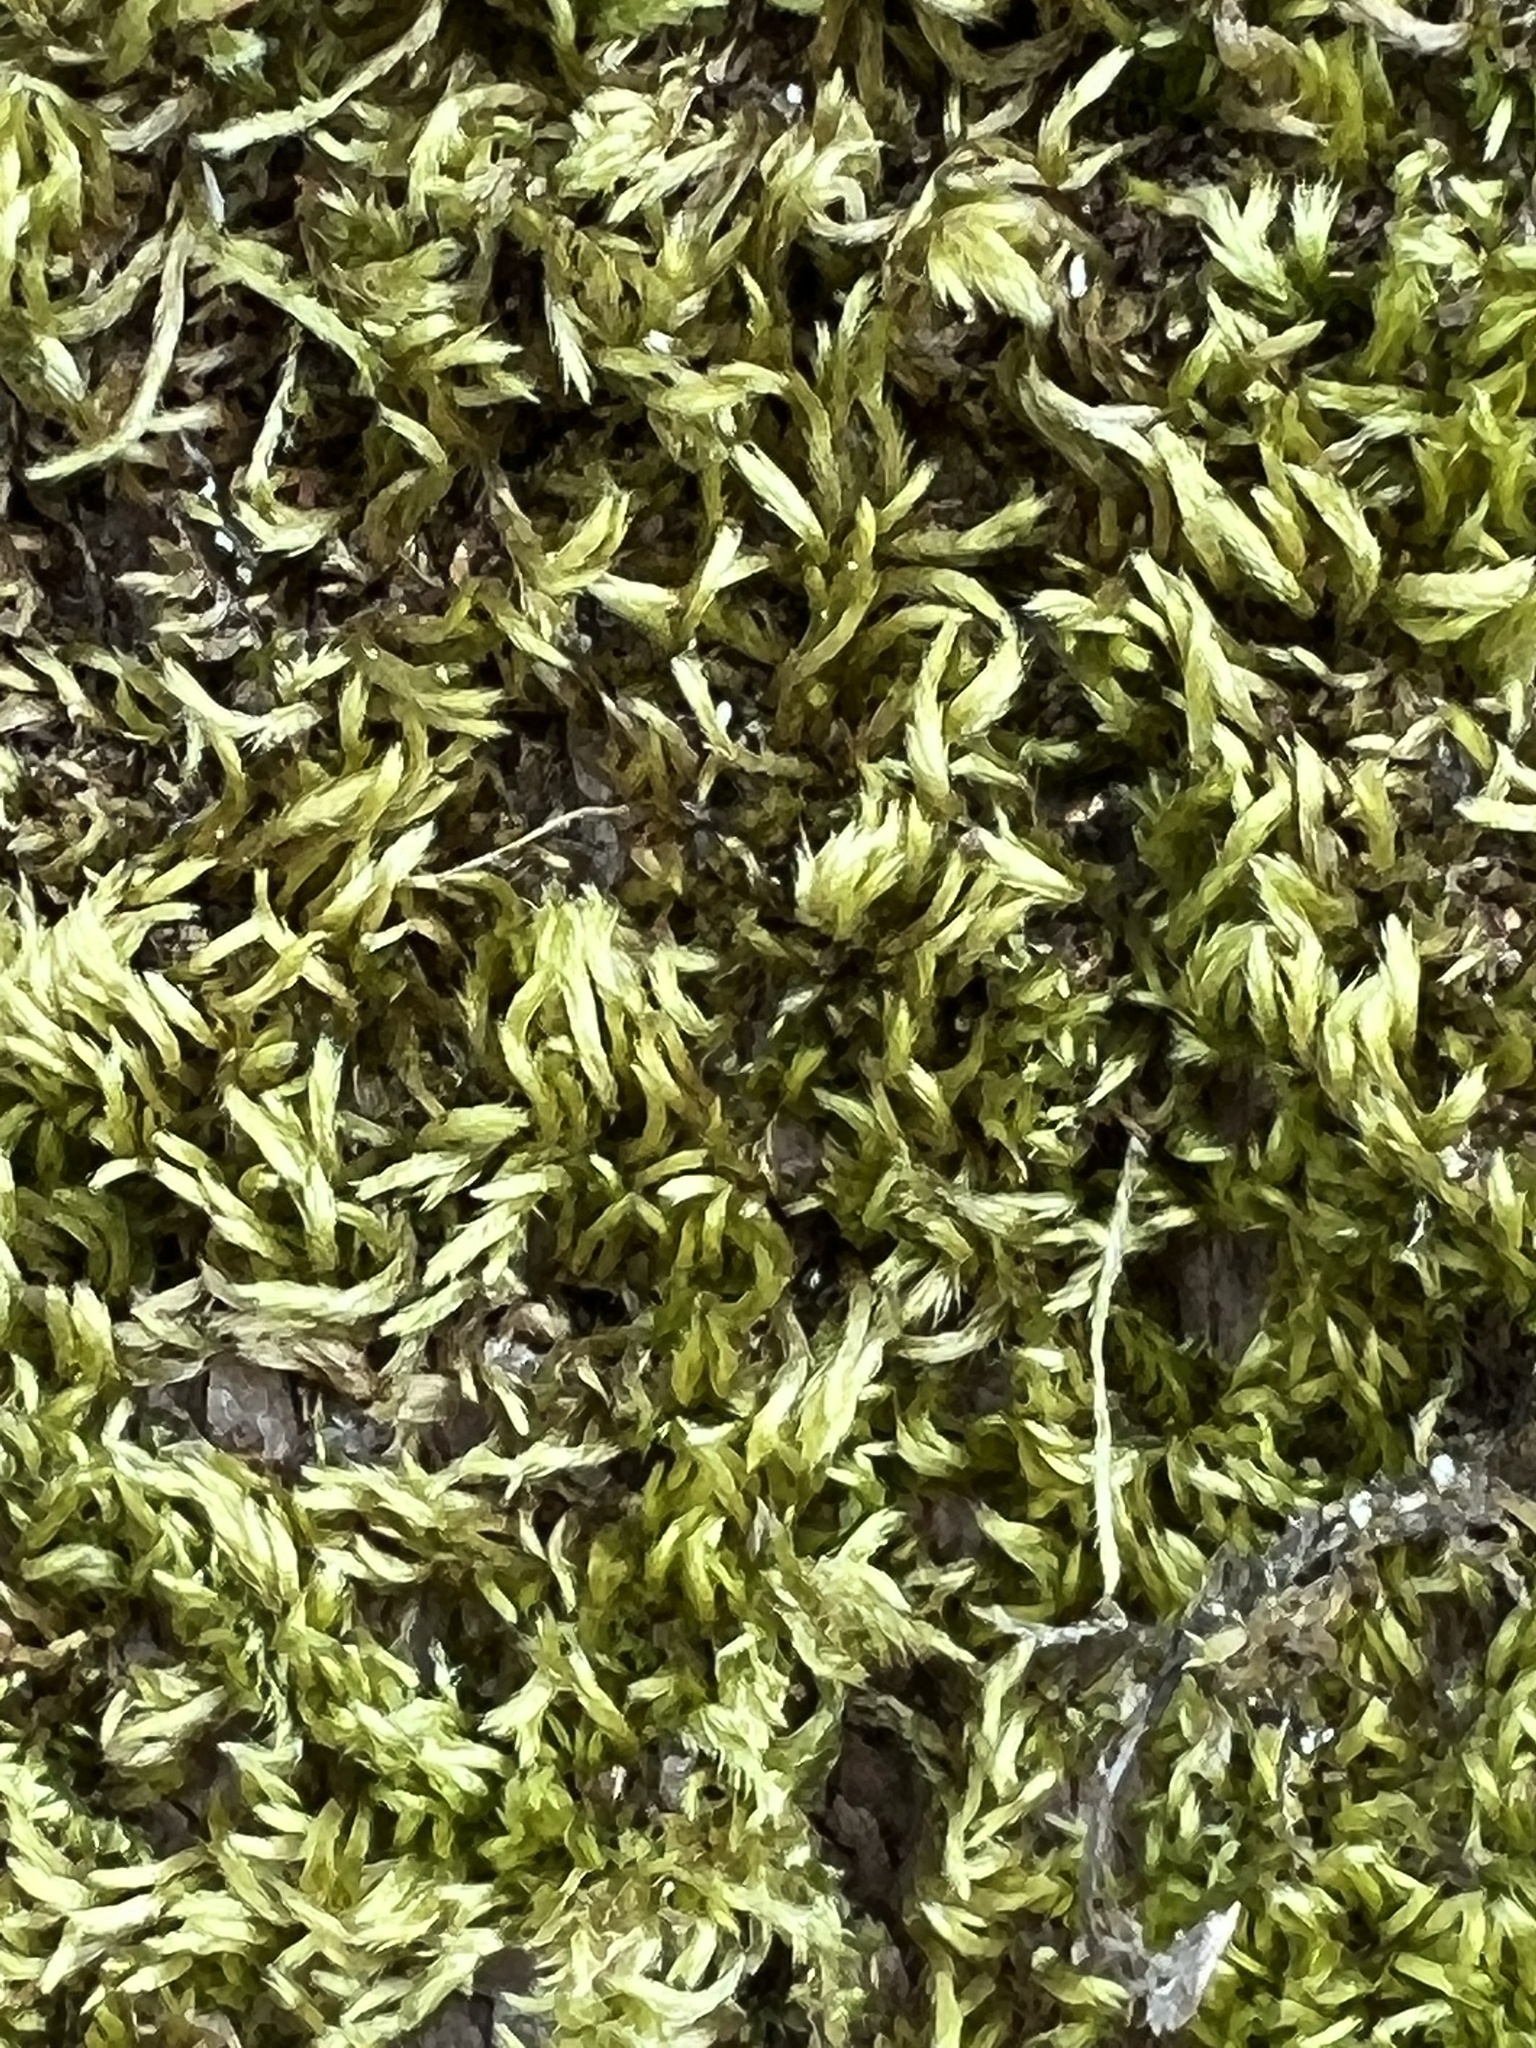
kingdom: Plantae
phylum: Bryophyta
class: Bryopsida
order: Hypnales
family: Brachytheciaceae
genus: Homalothecium
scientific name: Homalothecium sericeum
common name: Silky wall feather-moss
